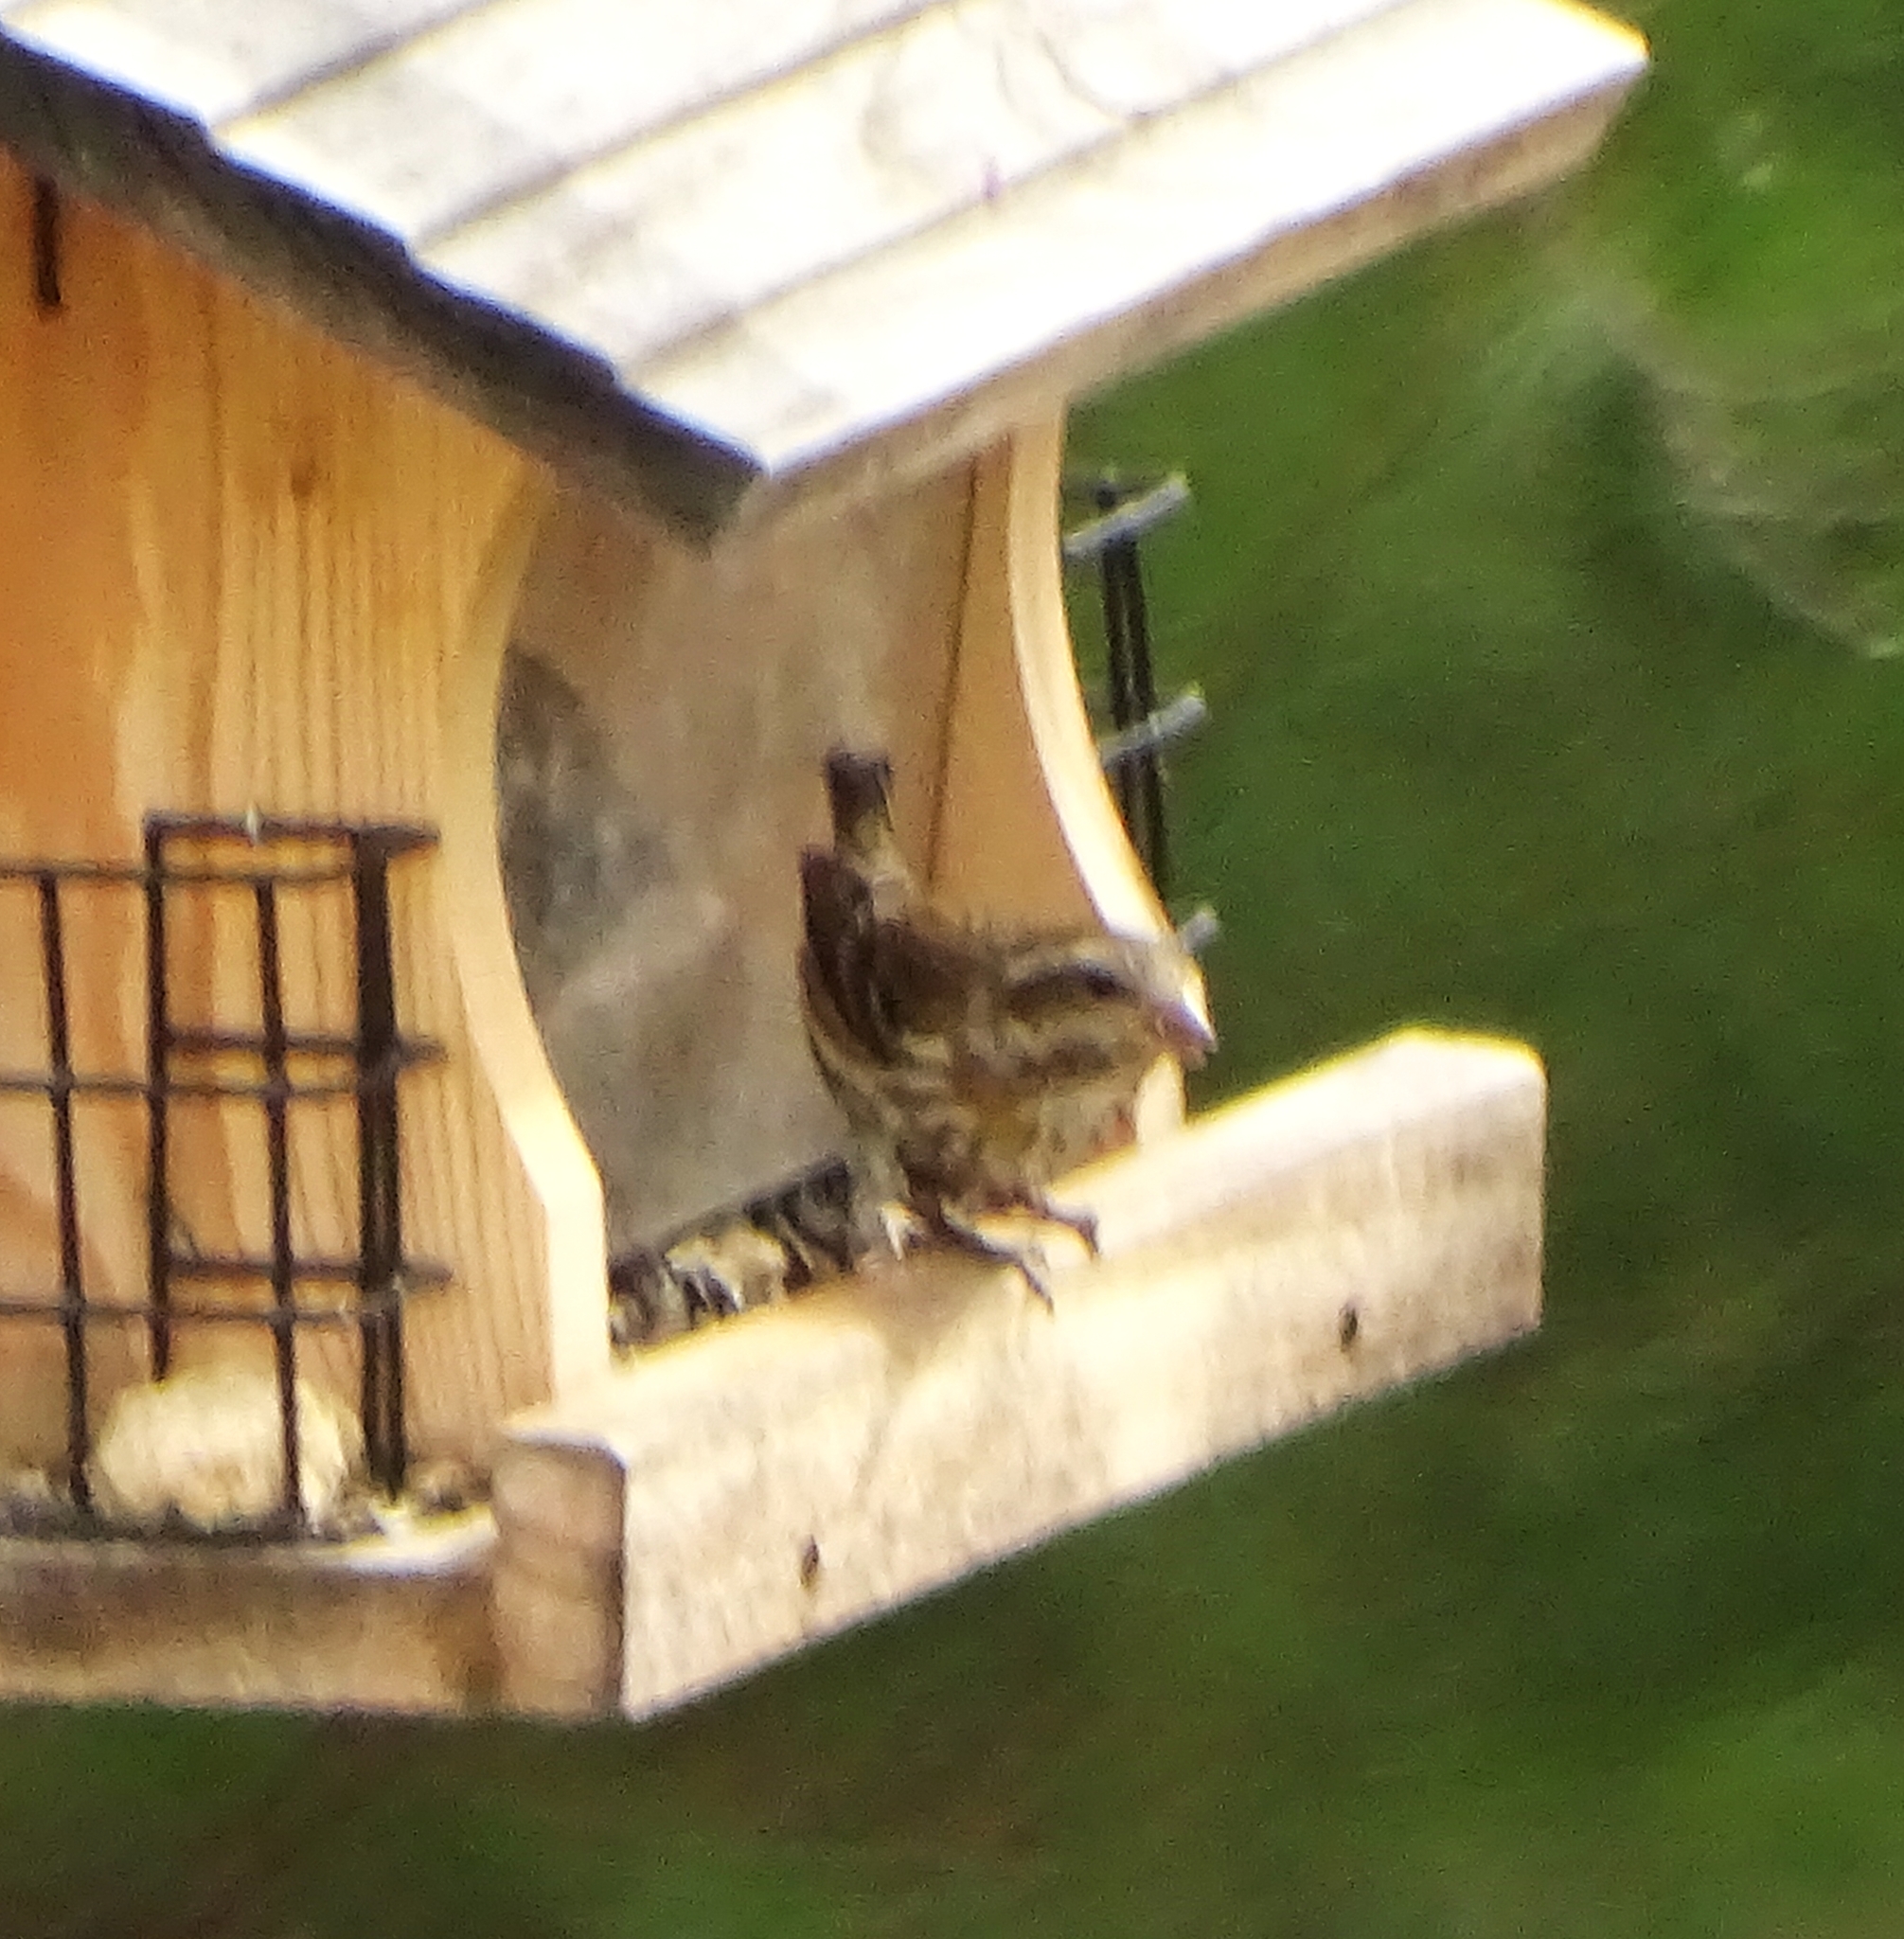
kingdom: Animalia
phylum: Chordata
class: Aves
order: Passeriformes
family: Fringillidae
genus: Haemorhous
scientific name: Haemorhous purpureus
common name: Purple finch
